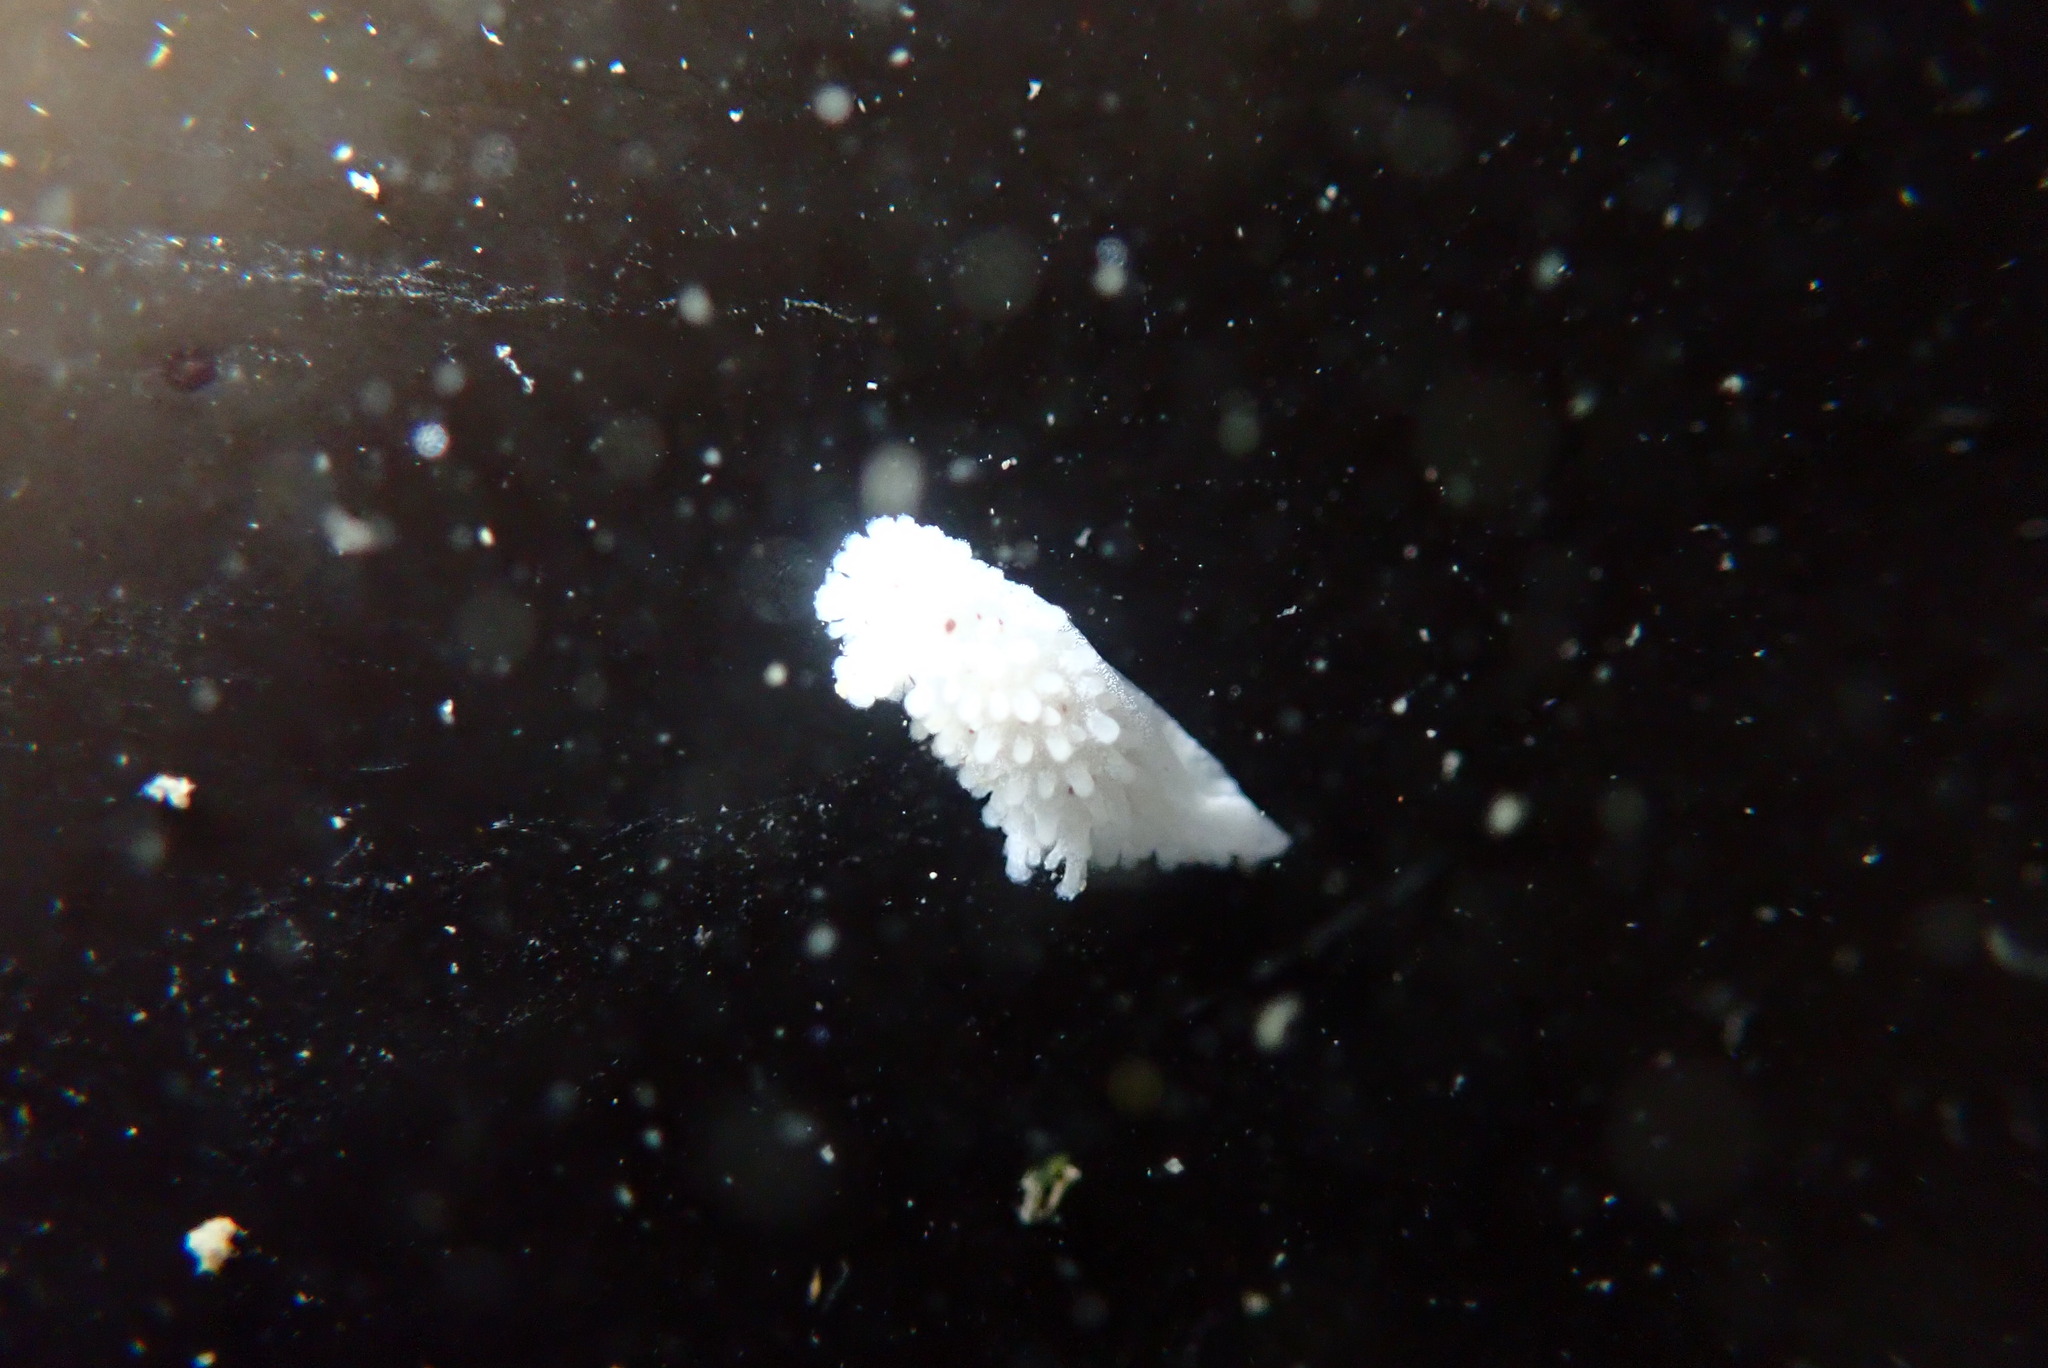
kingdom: Animalia
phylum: Mollusca
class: Gastropoda
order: Nudibranchia
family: Aegiridae
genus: Aegires
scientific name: Aegires albopunctatus
